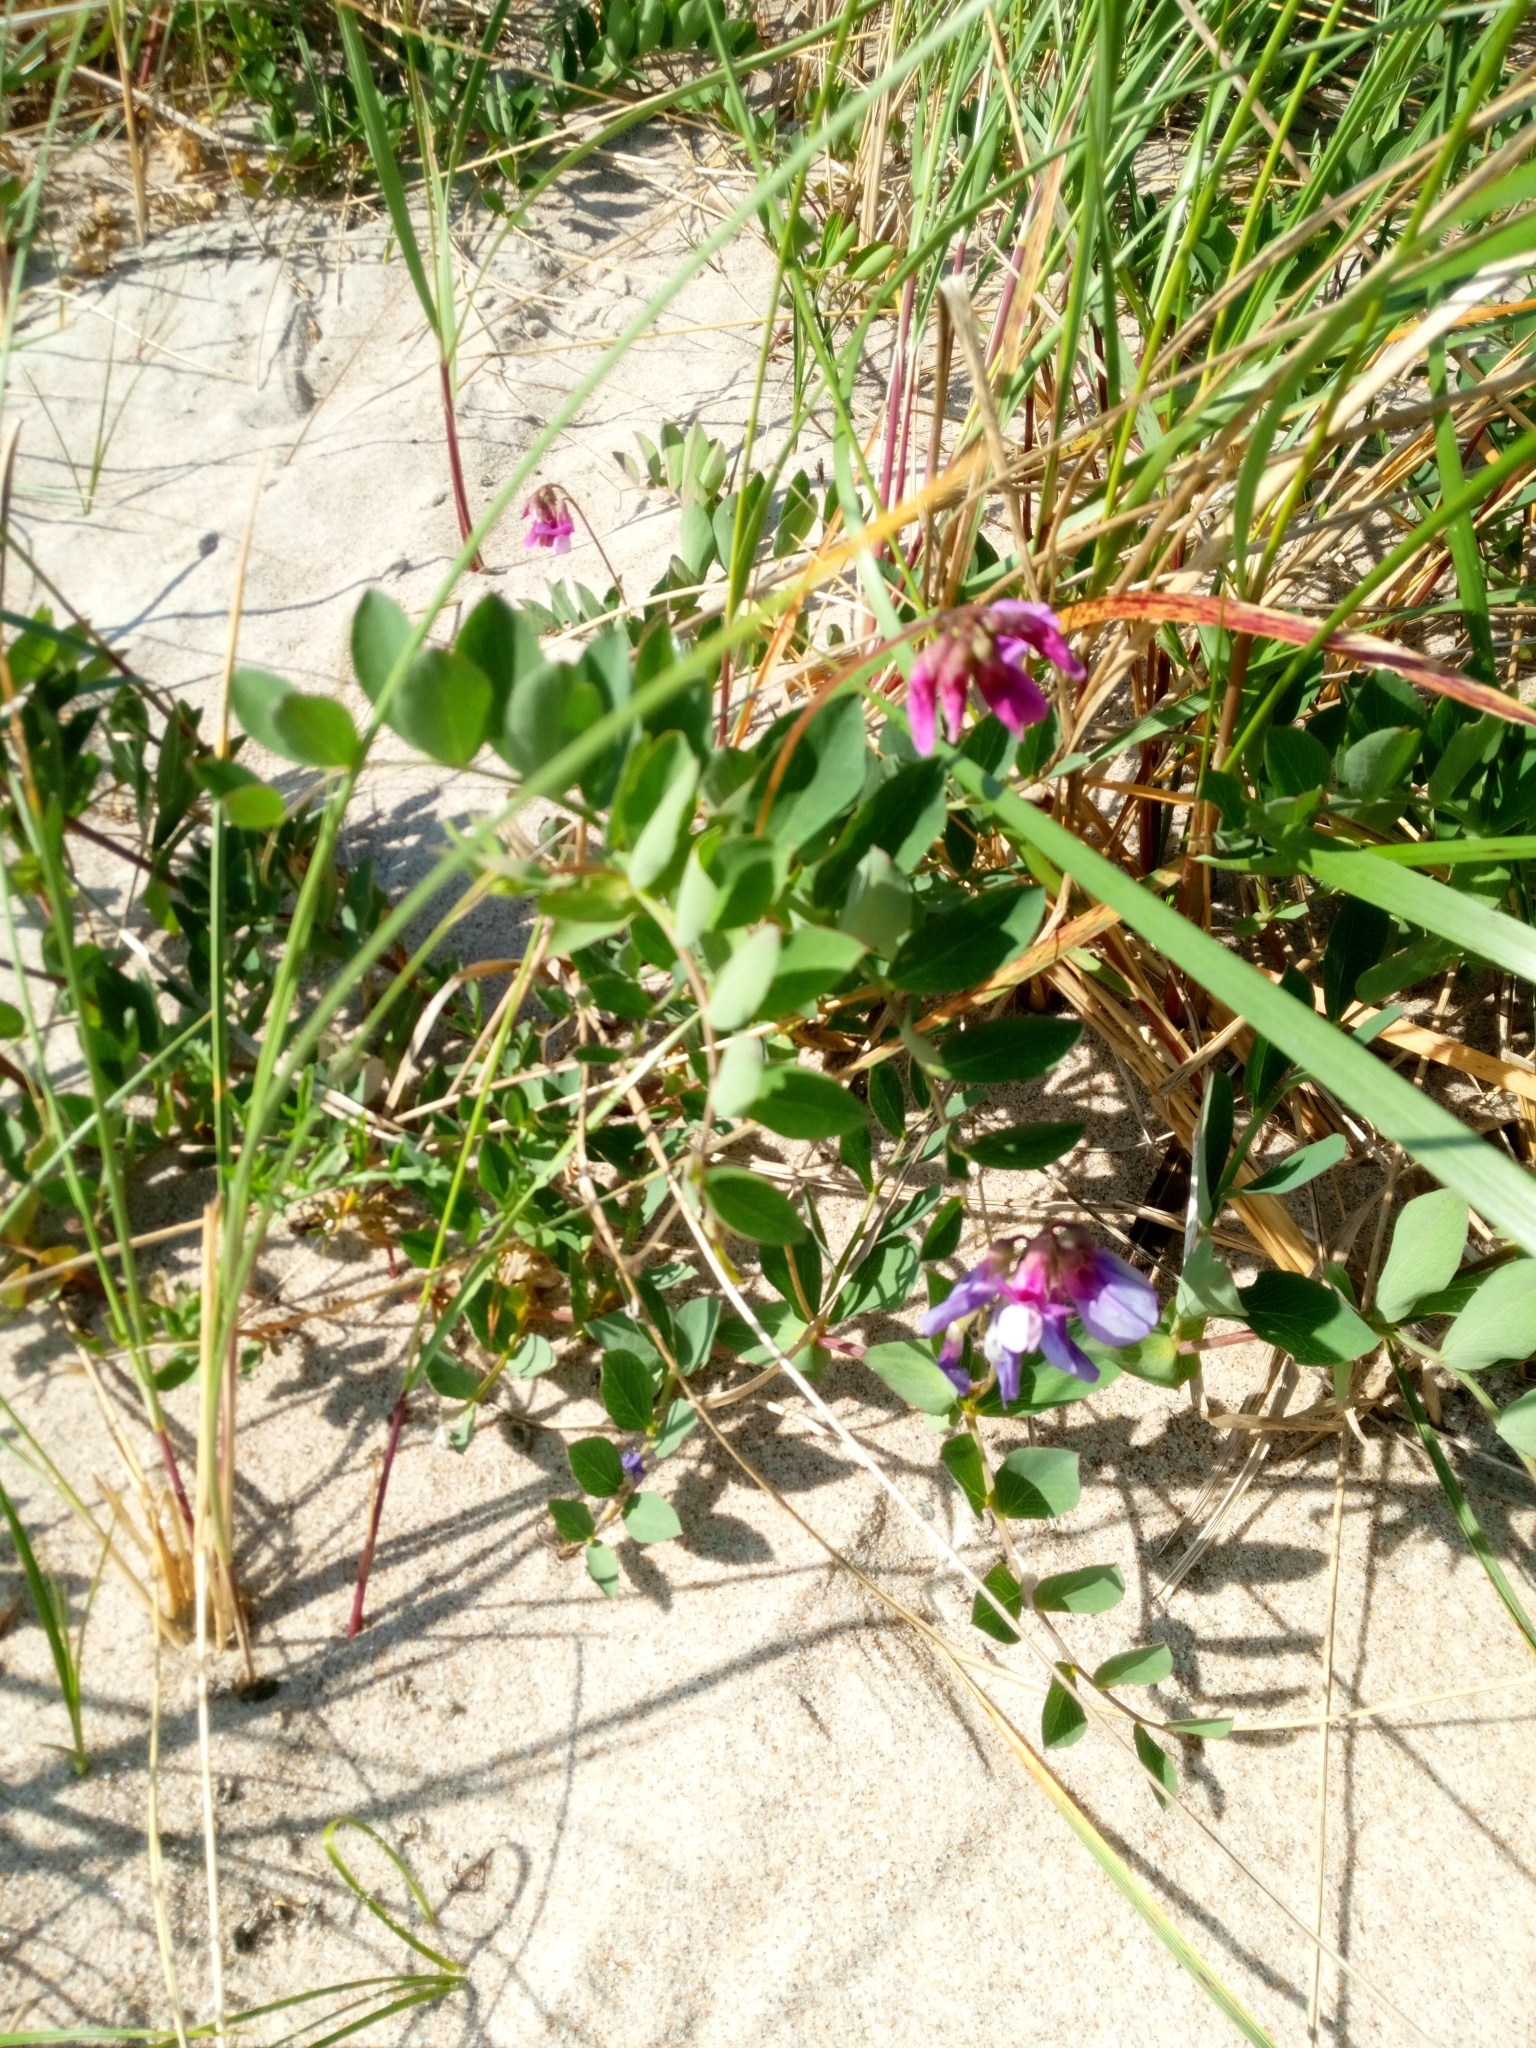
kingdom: Plantae
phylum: Tracheophyta
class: Magnoliopsida
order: Fabales
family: Fabaceae
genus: Lathyrus
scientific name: Lathyrus japonicus
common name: Sea pea
